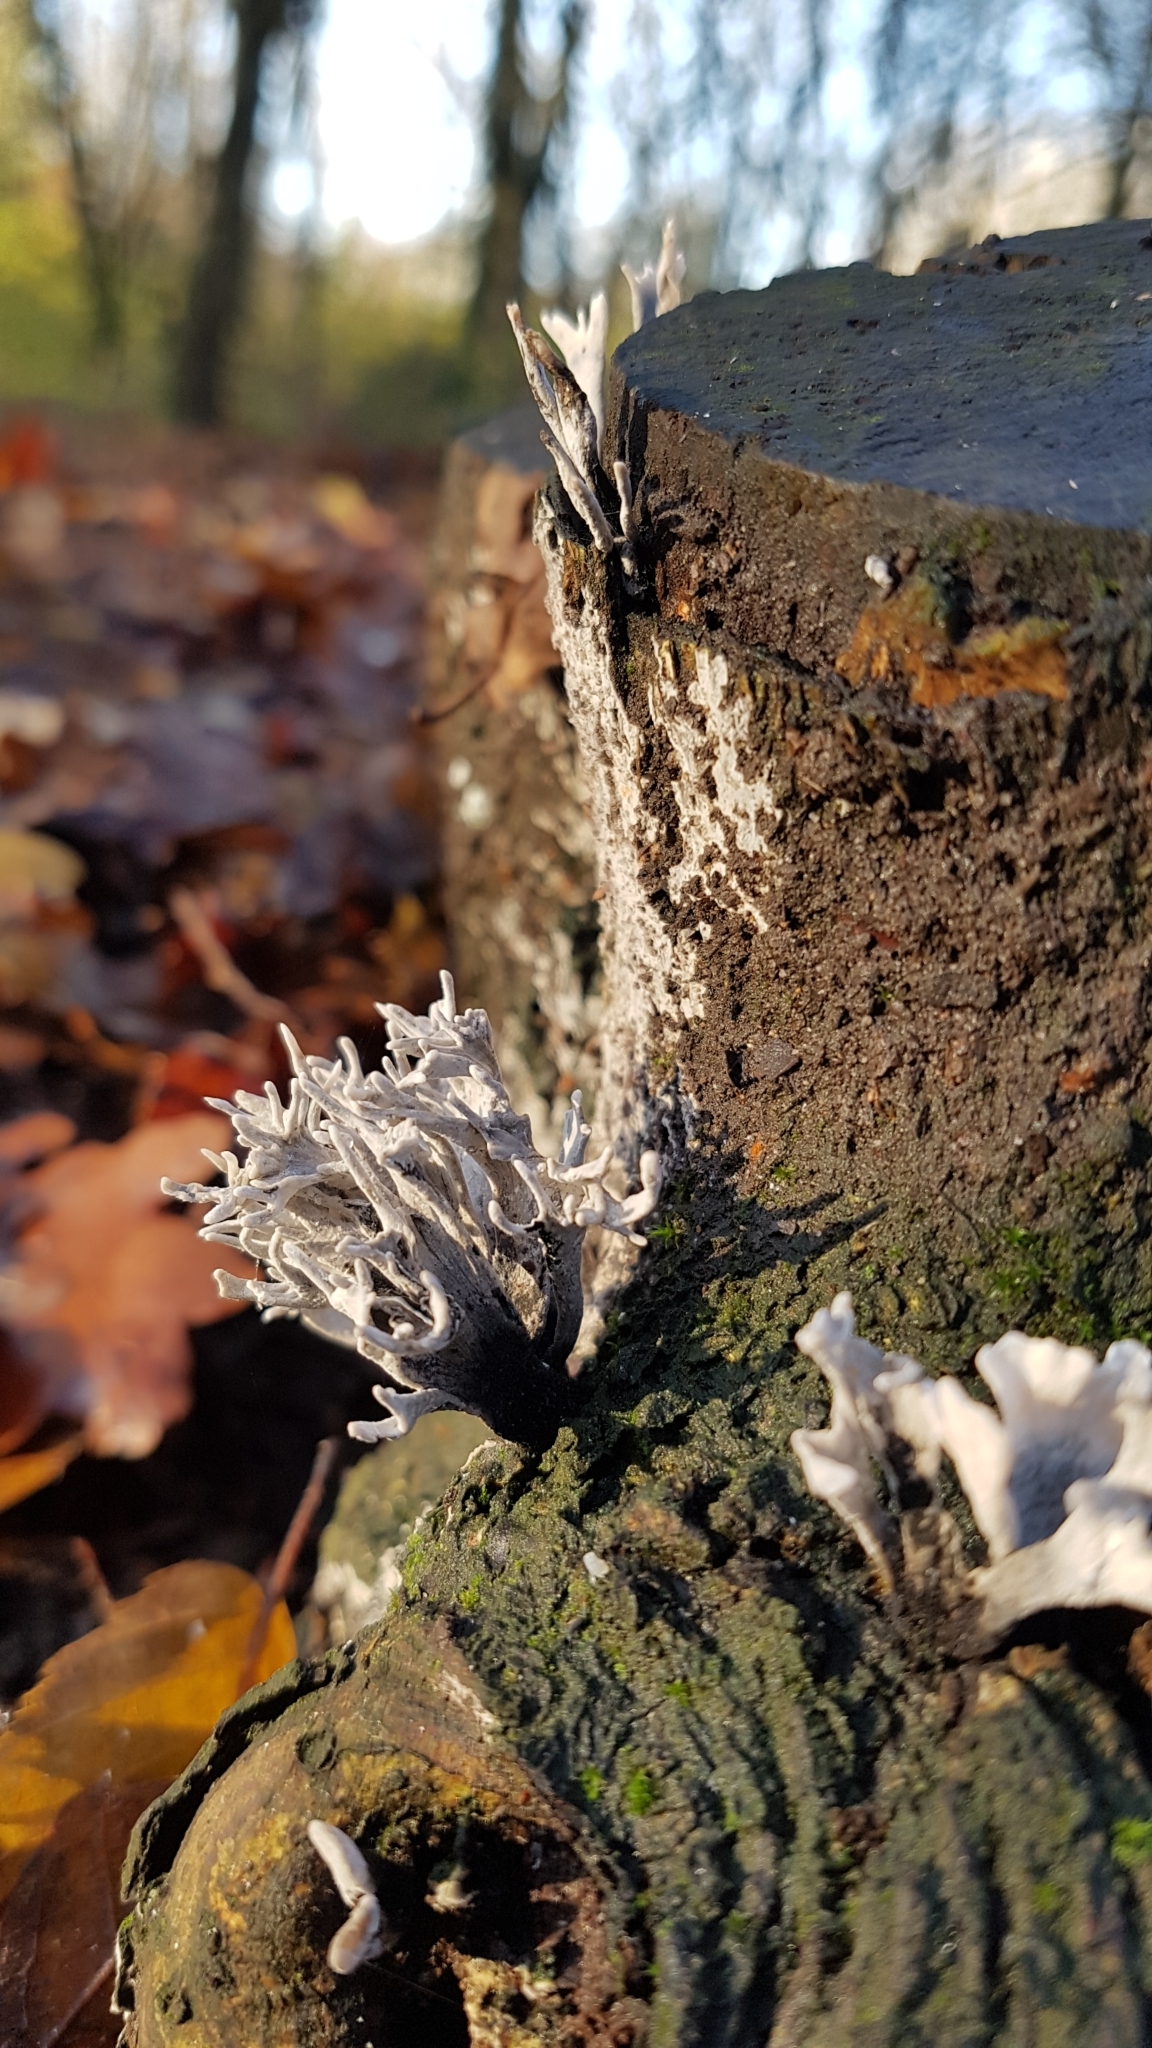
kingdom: Fungi
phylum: Ascomycota
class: Sordariomycetes
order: Xylariales
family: Xylariaceae
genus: Xylaria
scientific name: Xylaria hypoxylon
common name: Candle-snuff fungus
